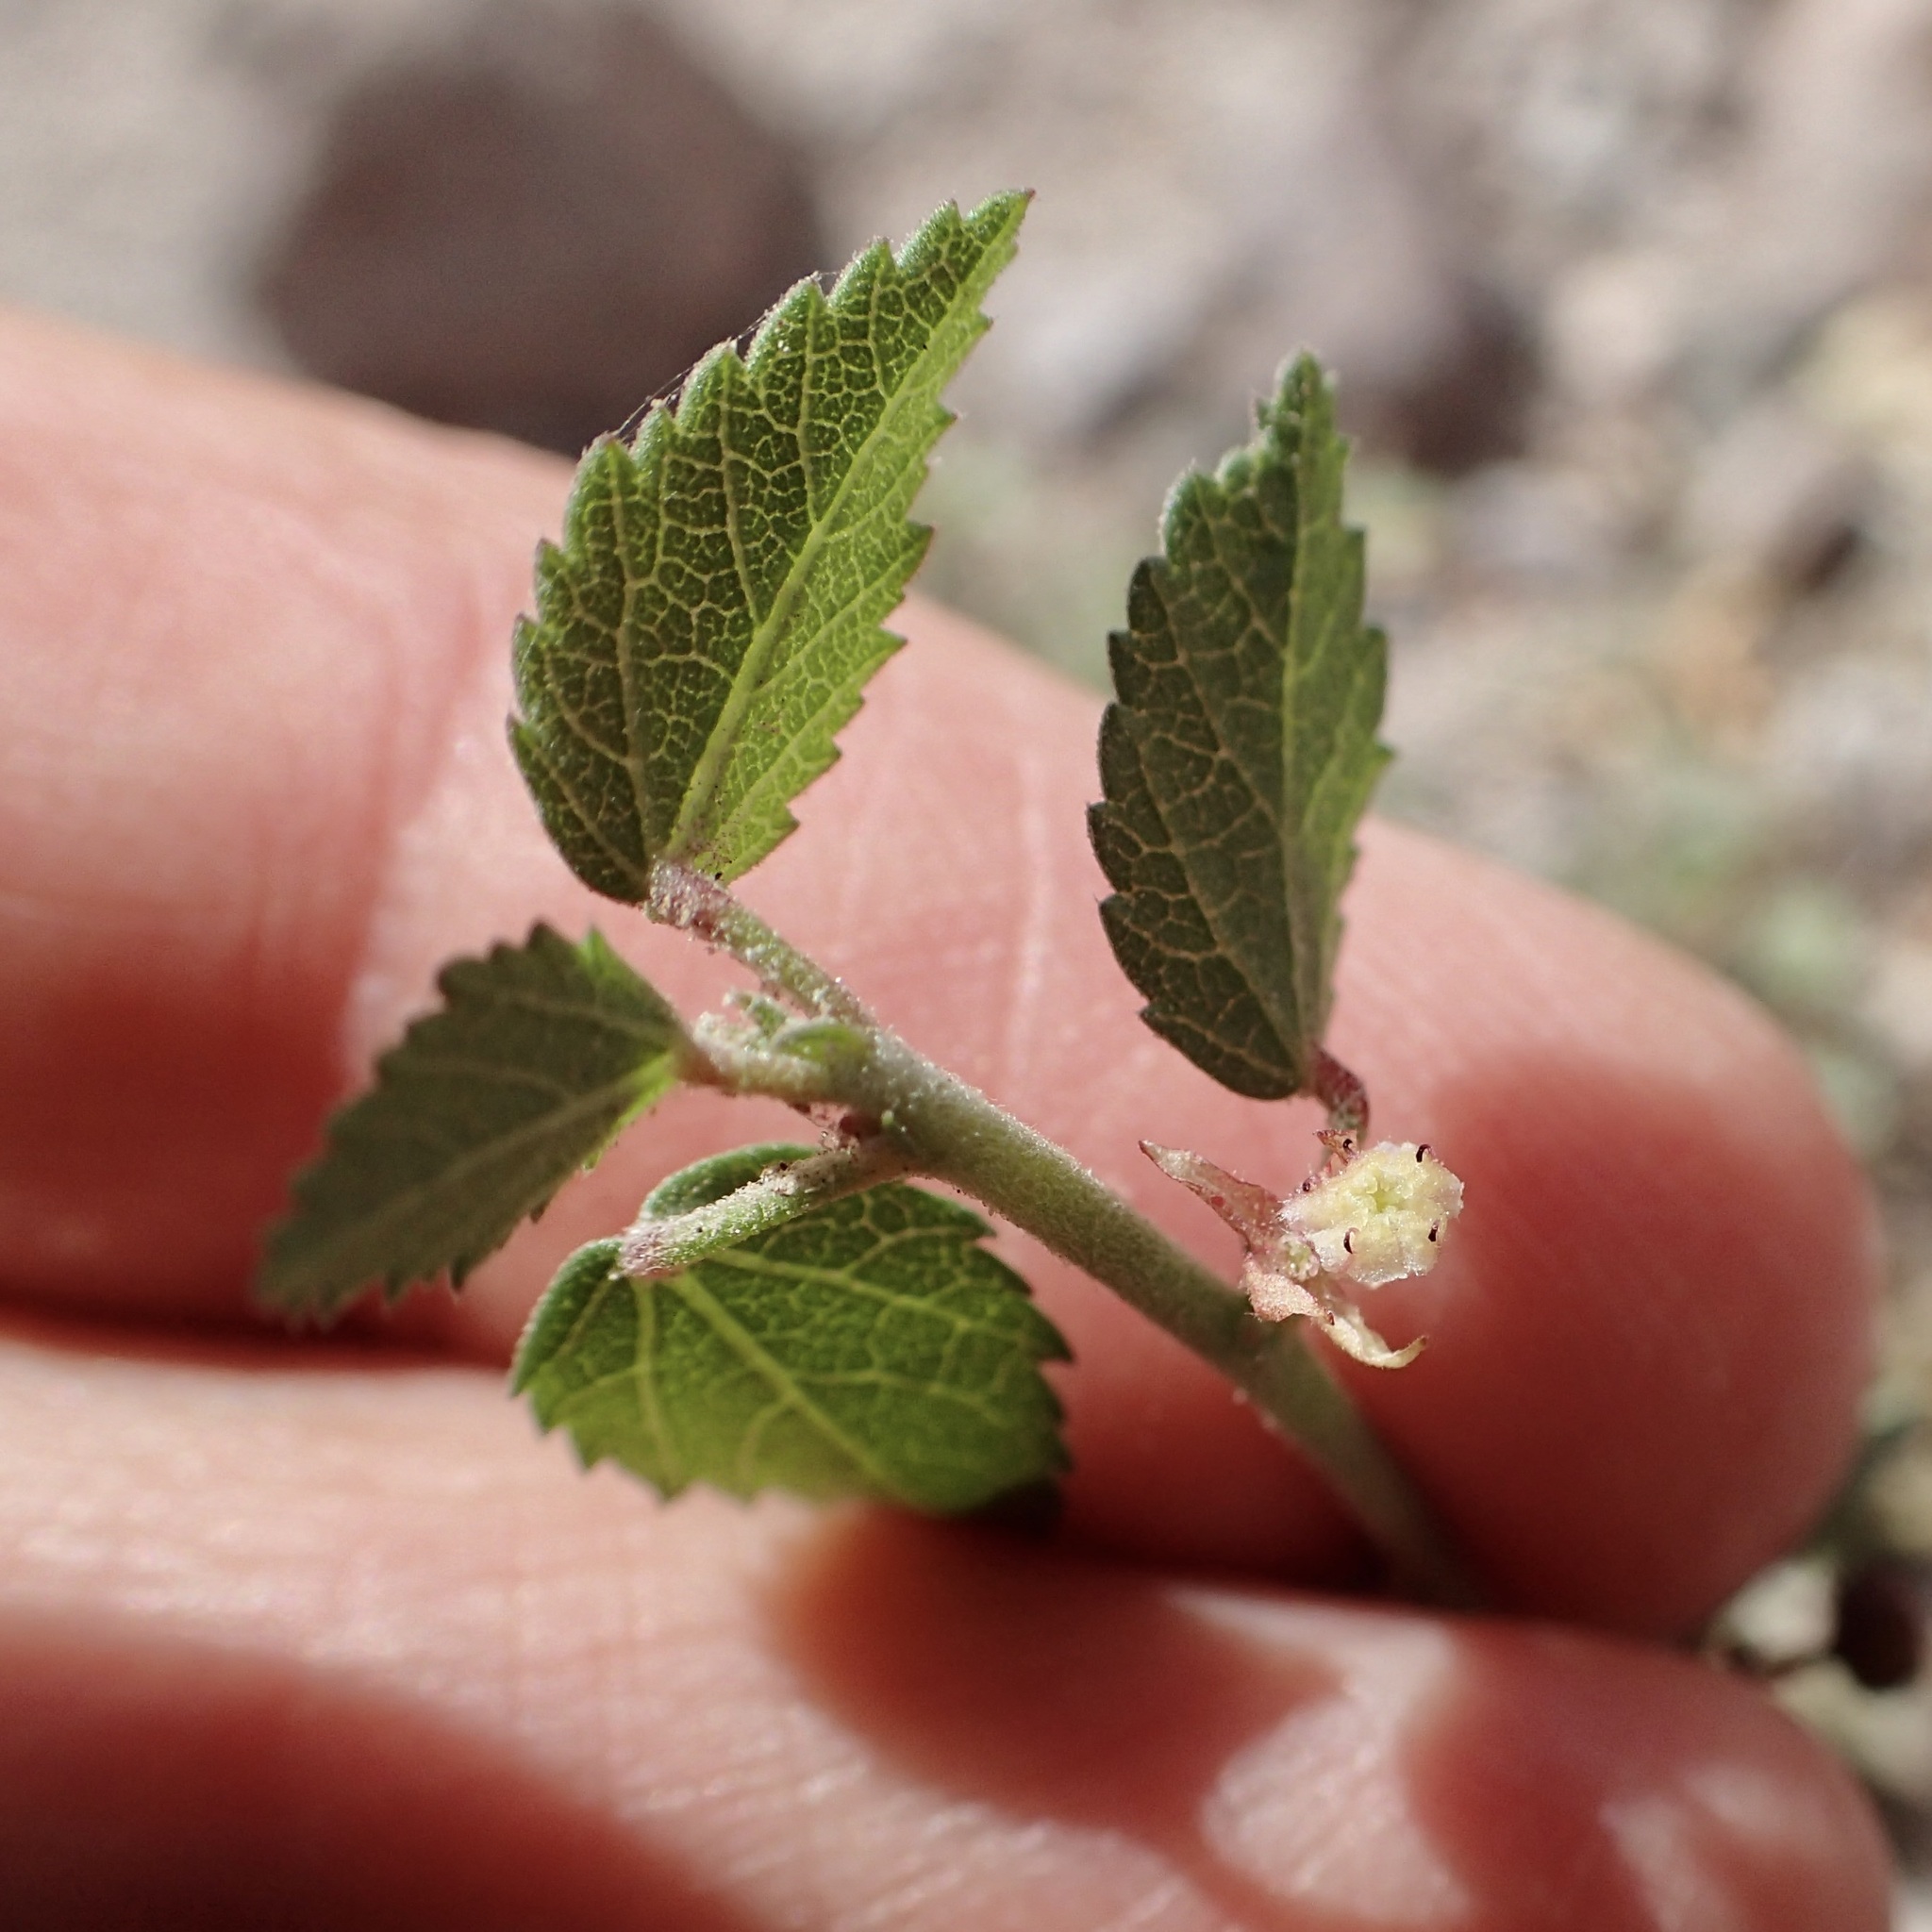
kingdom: Plantae
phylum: Tracheophyta
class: Magnoliopsida
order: Malvales
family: Malvaceae
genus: Ayenia
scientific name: Ayenia compacta
